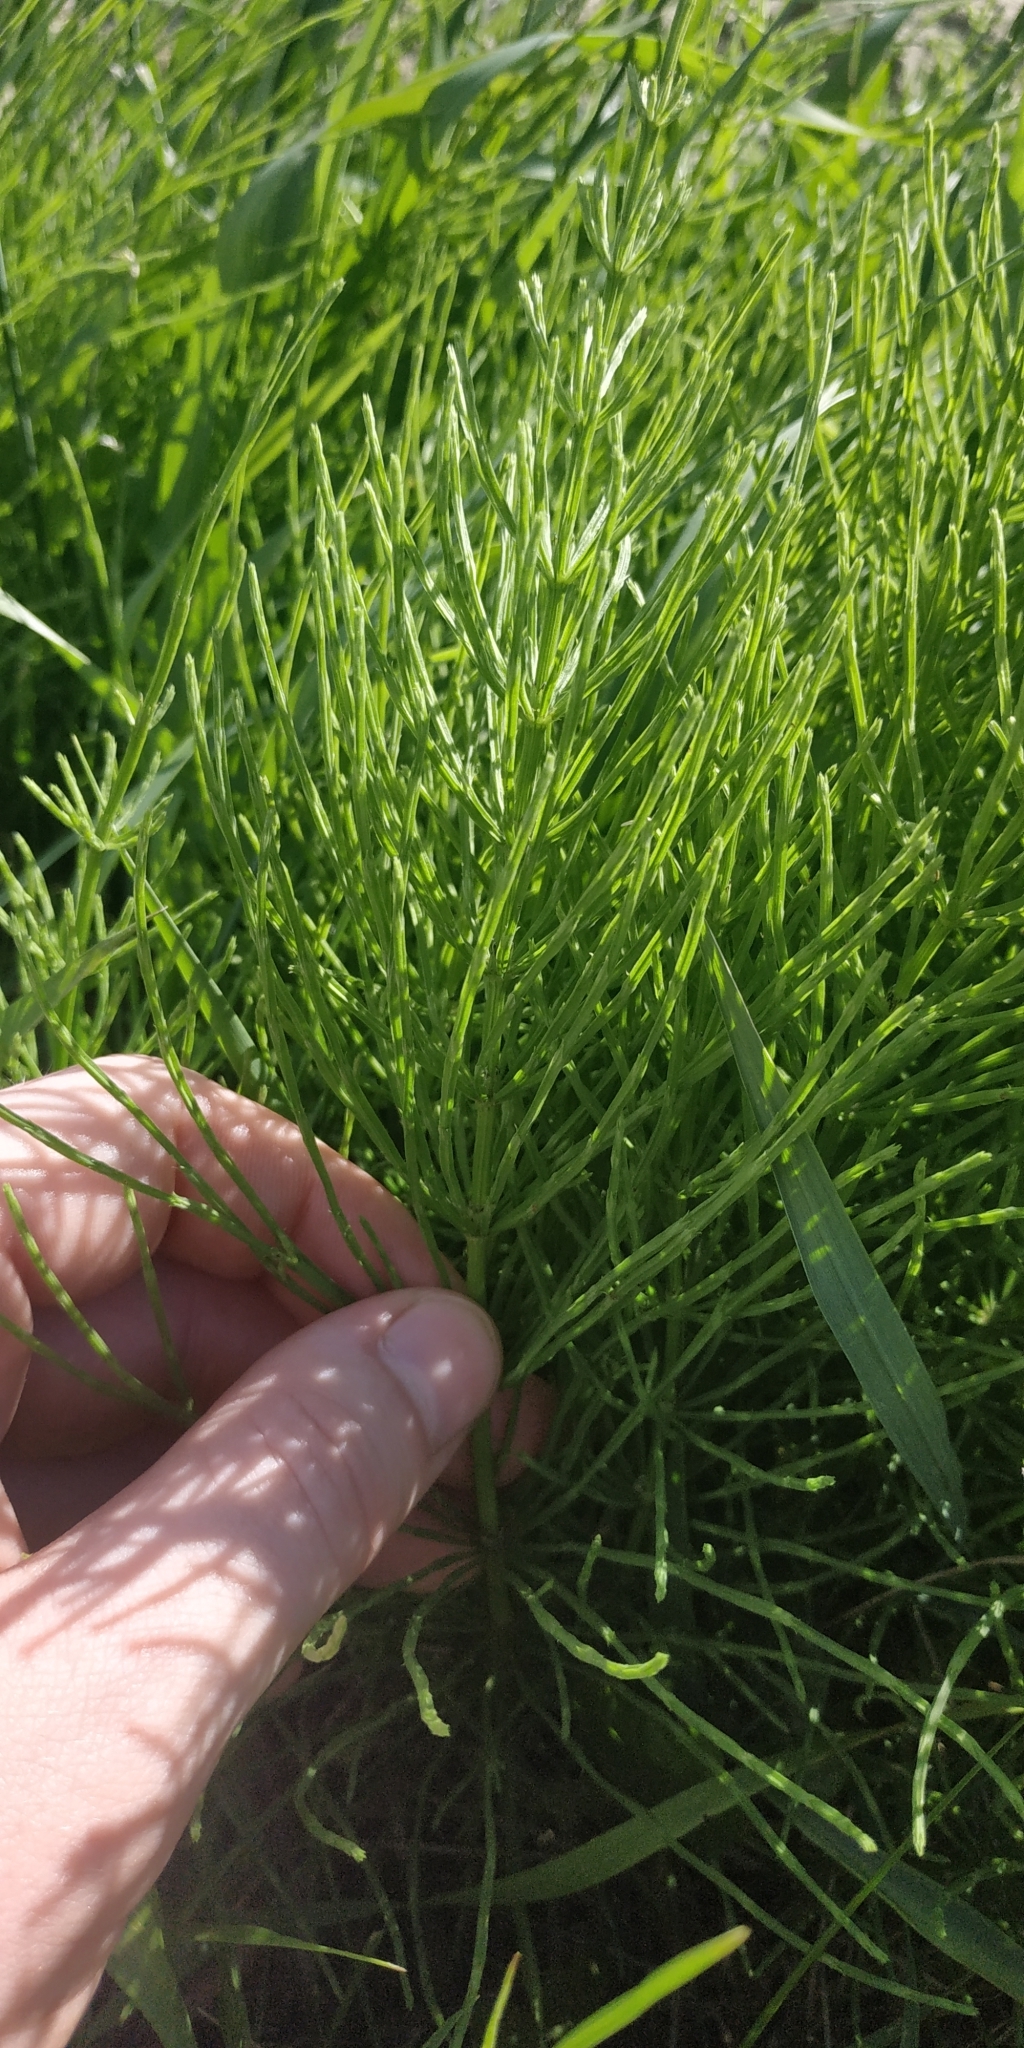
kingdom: Plantae
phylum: Tracheophyta
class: Polypodiopsida
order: Equisetales
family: Equisetaceae
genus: Equisetum
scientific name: Equisetum arvense
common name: Field horsetail
